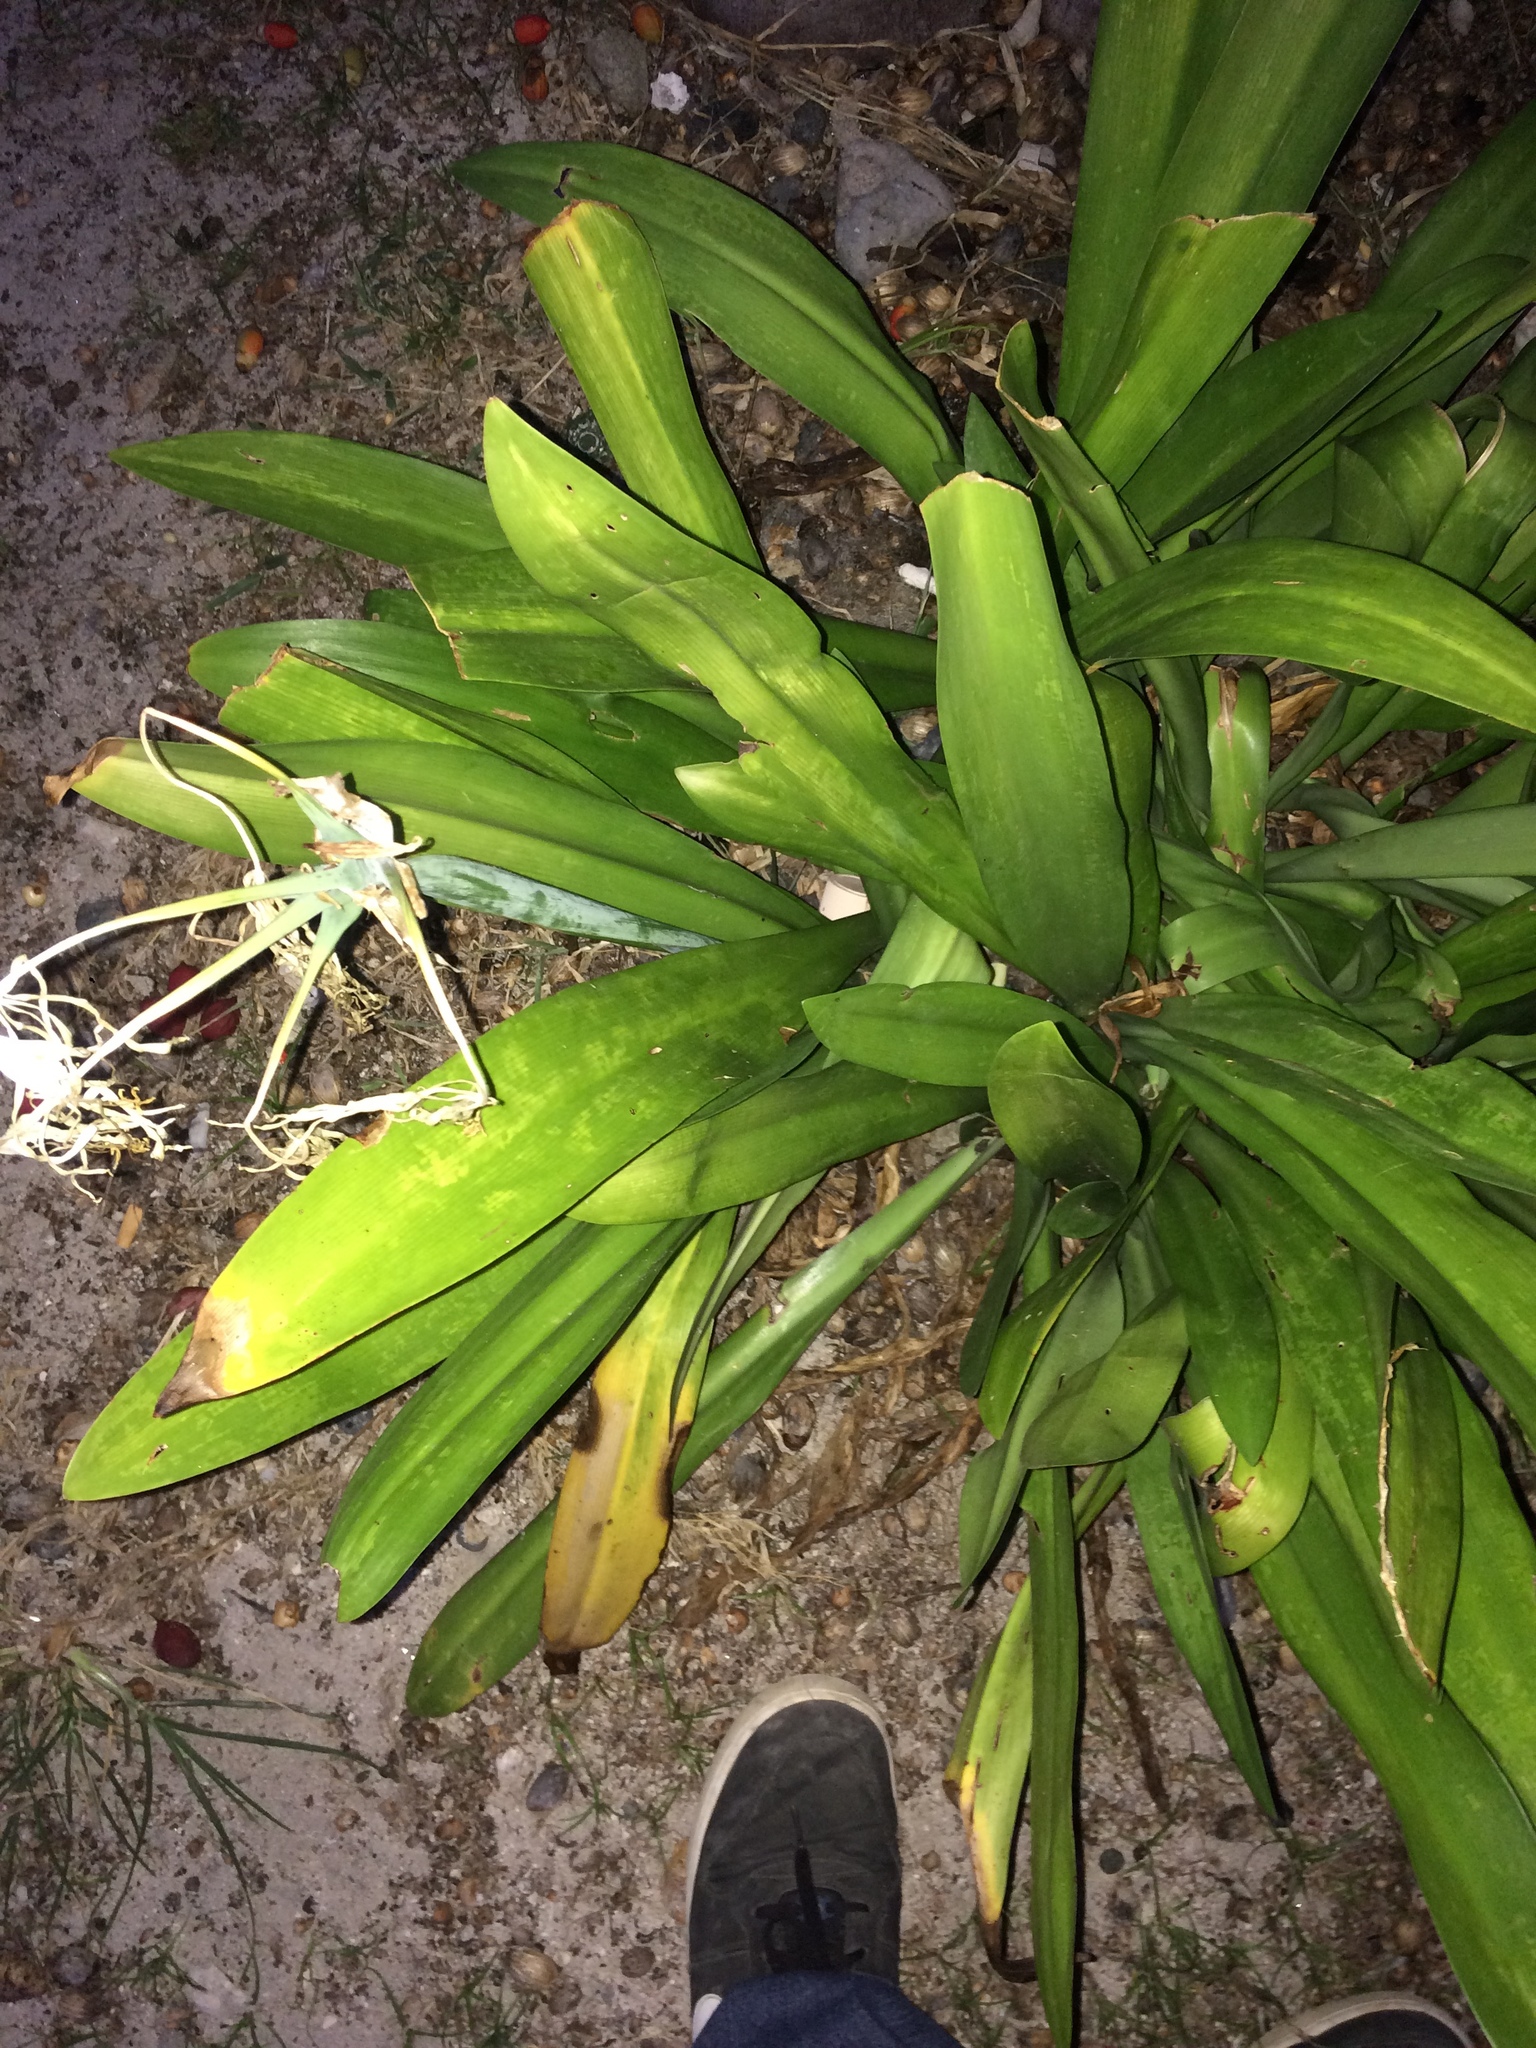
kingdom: Plantae
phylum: Tracheophyta
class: Liliopsida
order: Asparagales
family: Amaryllidaceae
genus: Hymenocallis
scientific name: Hymenocallis littoralis
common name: Beach spiderlily
